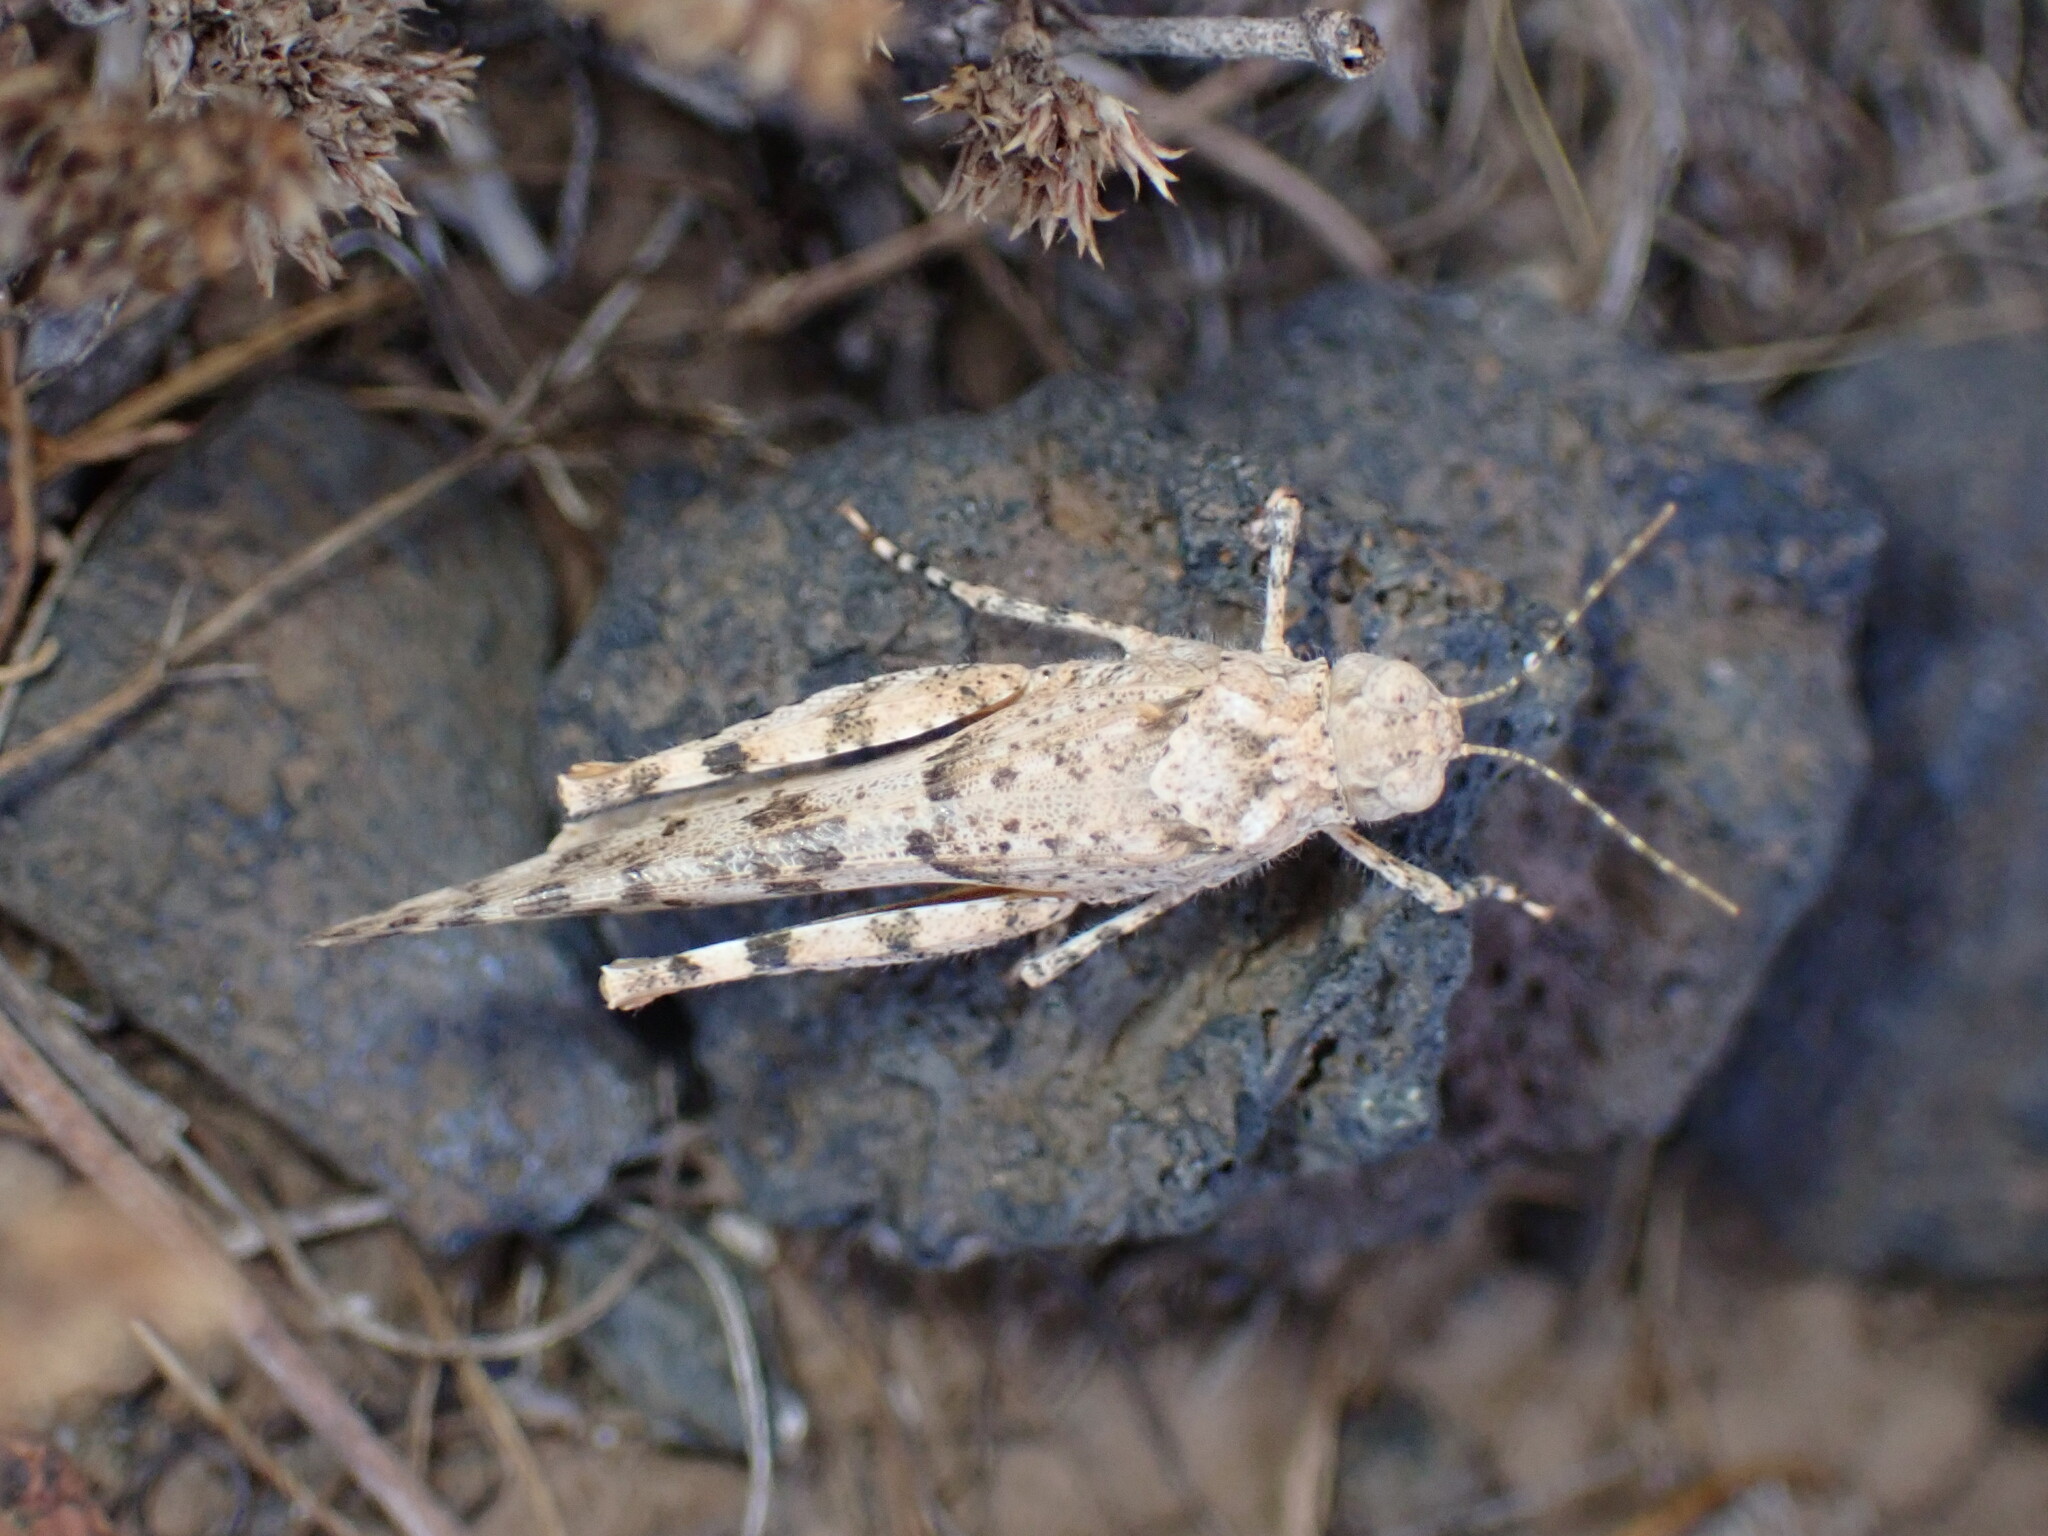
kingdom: Animalia
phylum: Arthropoda
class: Insecta
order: Orthoptera
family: Acrididae
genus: Sphingonotus
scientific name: Sphingonotus picteti
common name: Tenerife sand grasshopper
